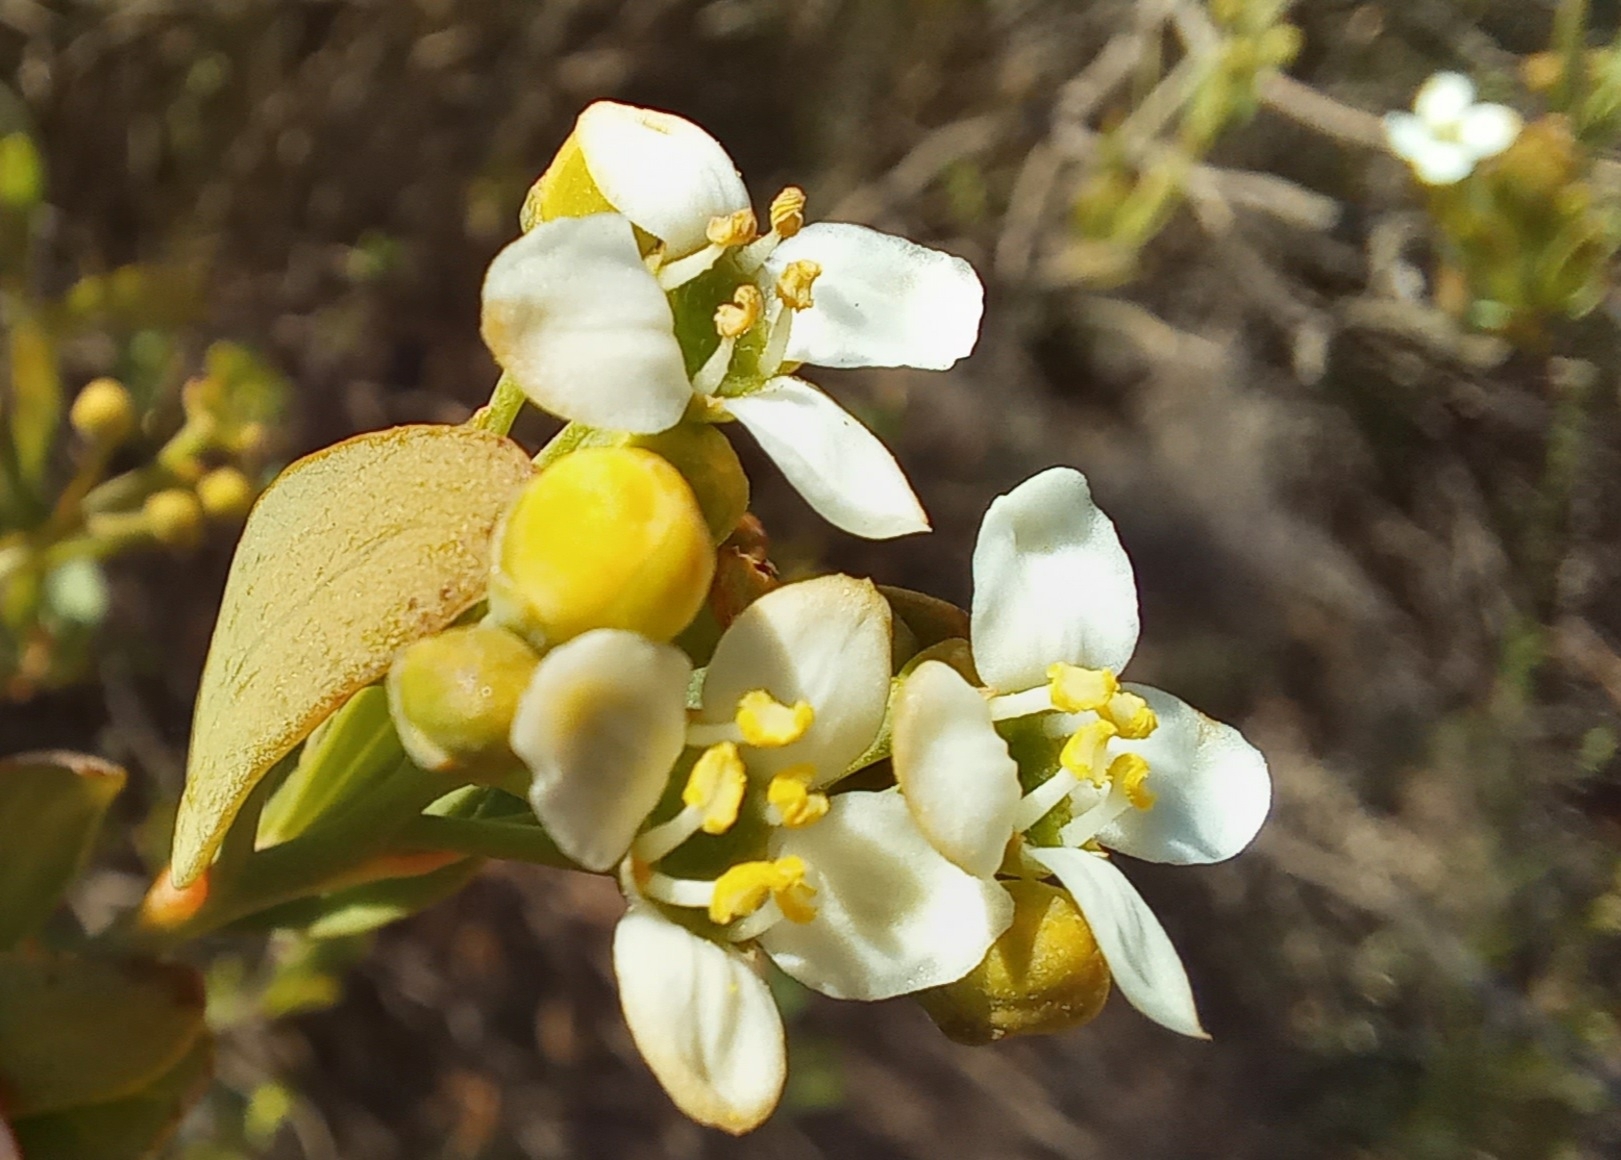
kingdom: Plantae
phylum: Tracheophyta
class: Magnoliopsida
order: Solanales
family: Montiniaceae
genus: Montinia
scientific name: Montinia caryophyllacea
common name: Wild clove-bush
